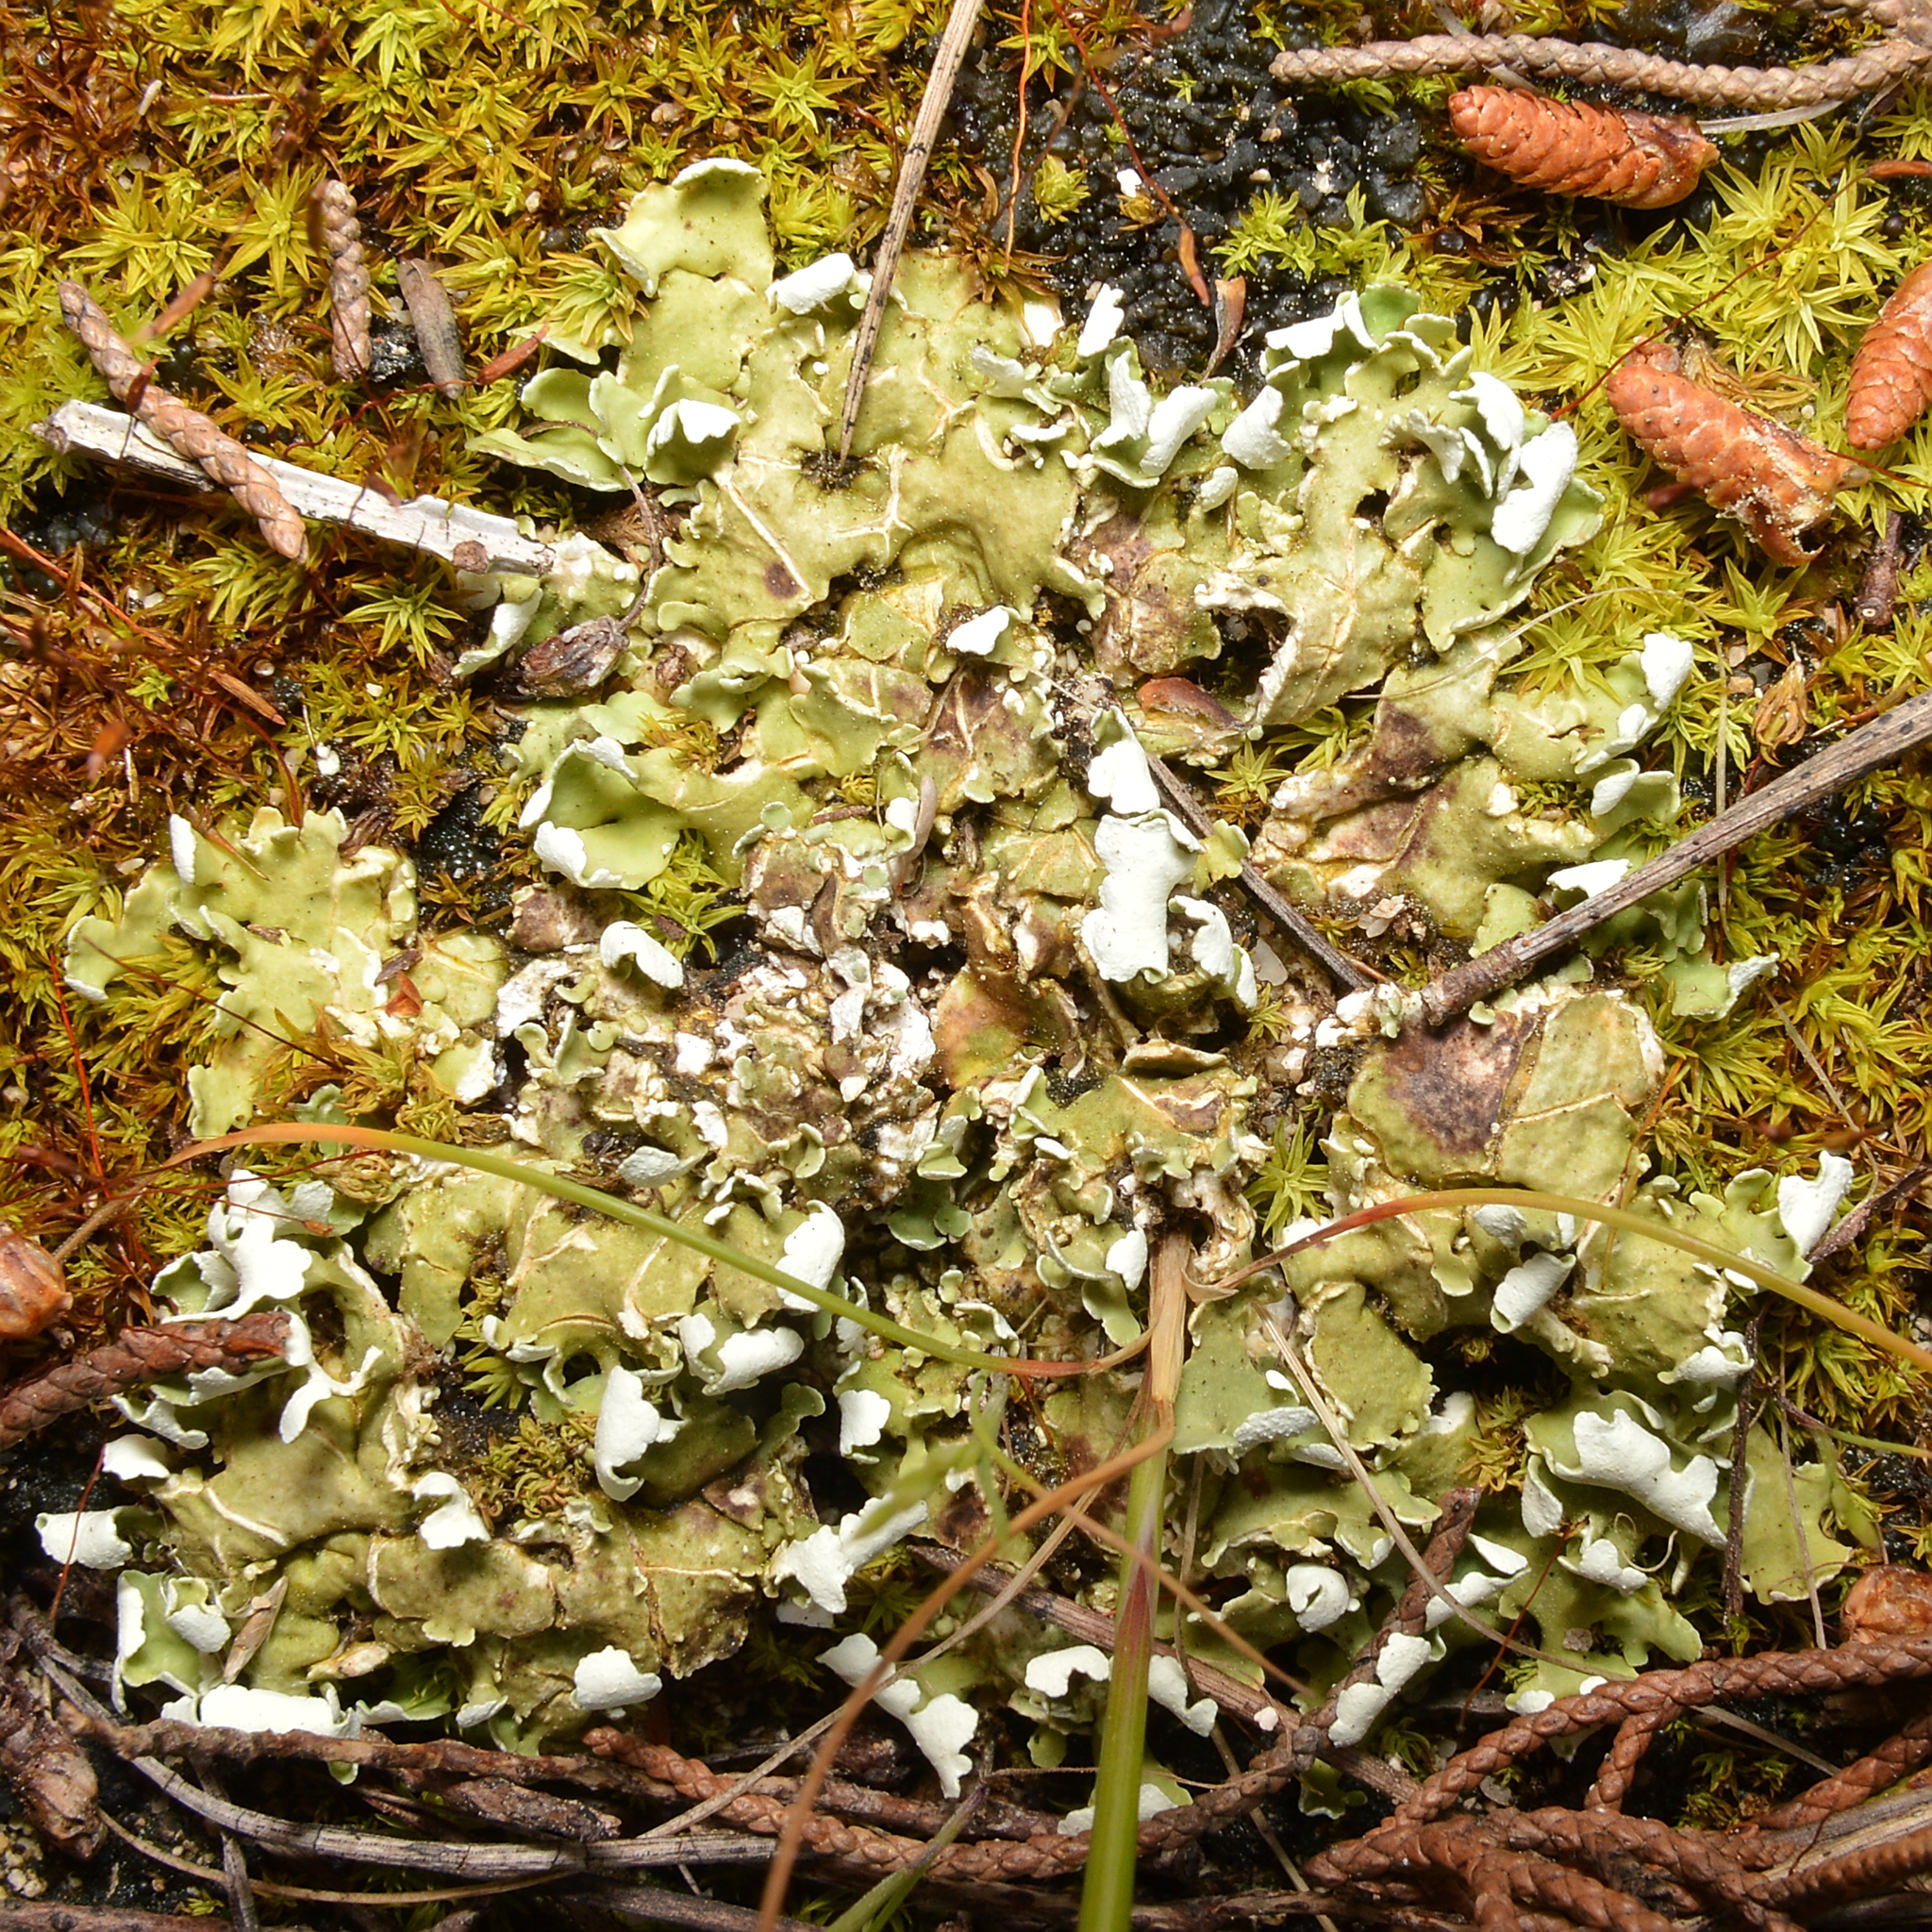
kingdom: Fungi
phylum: Ascomycota
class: Lecanoromycetes
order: Lecanorales
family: Cladoniaceae
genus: Cladonia
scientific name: Cladonia foliacea
